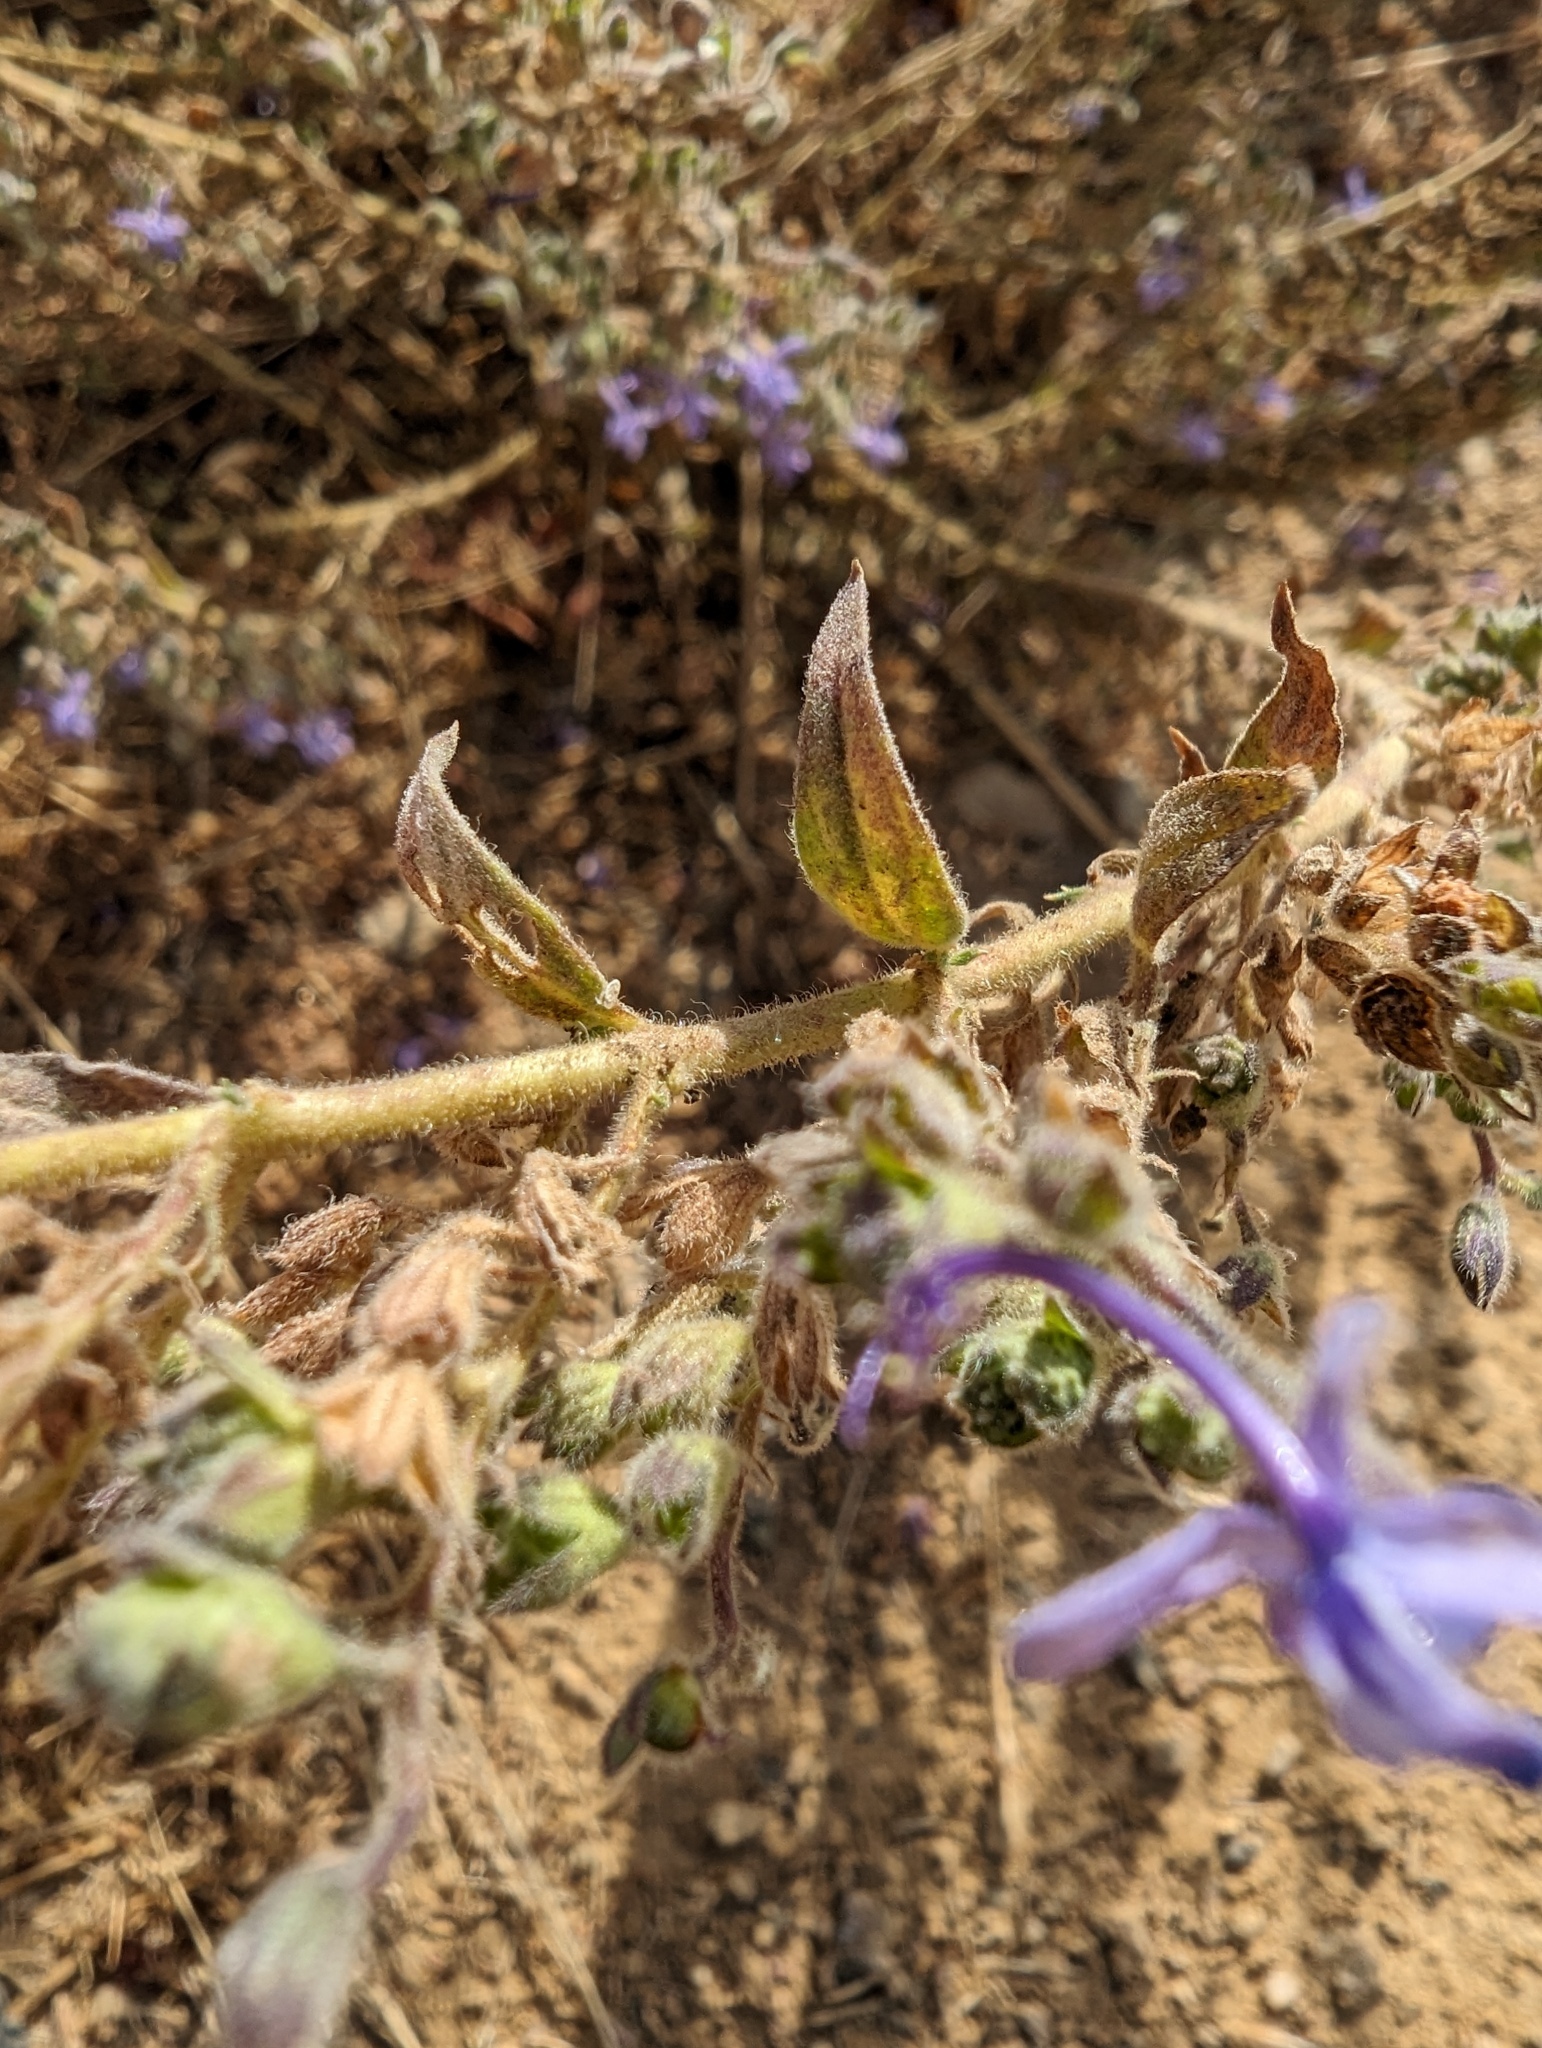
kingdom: Plantae
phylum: Tracheophyta
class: Magnoliopsida
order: Lamiales
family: Lamiaceae
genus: Trichostema
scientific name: Trichostema lanceolatum
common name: Vinegar-weed
